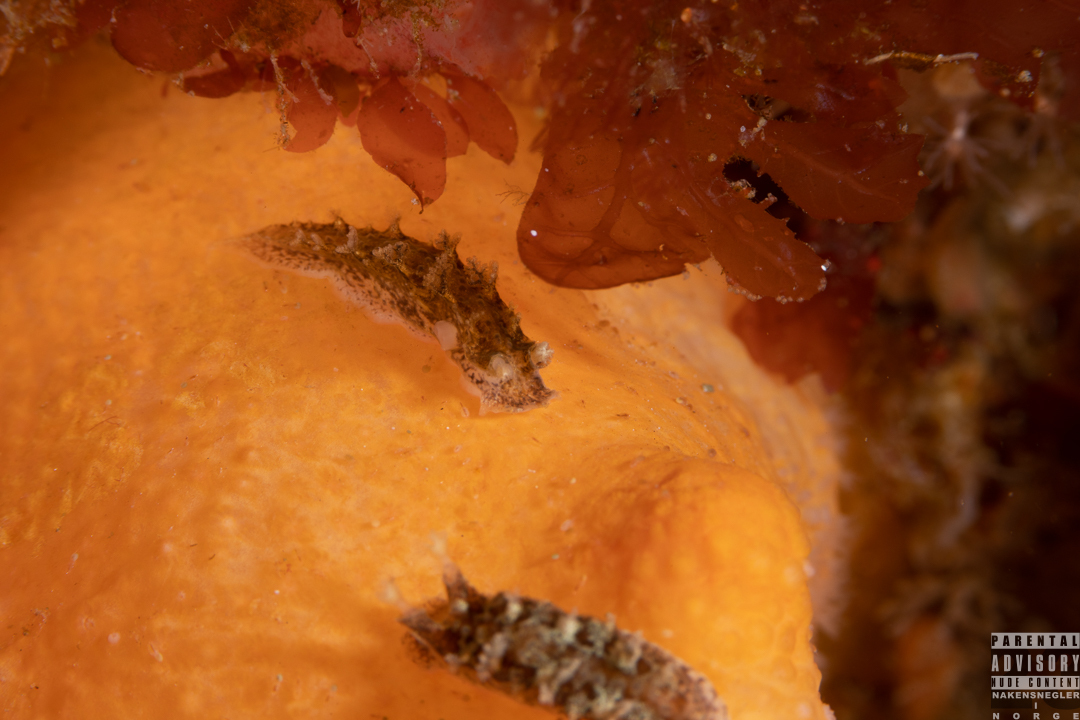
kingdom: Animalia
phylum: Mollusca
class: Gastropoda
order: Nudibranchia
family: Tritoniidae
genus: Duvaucelia
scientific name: Duvaucelia plebeia
